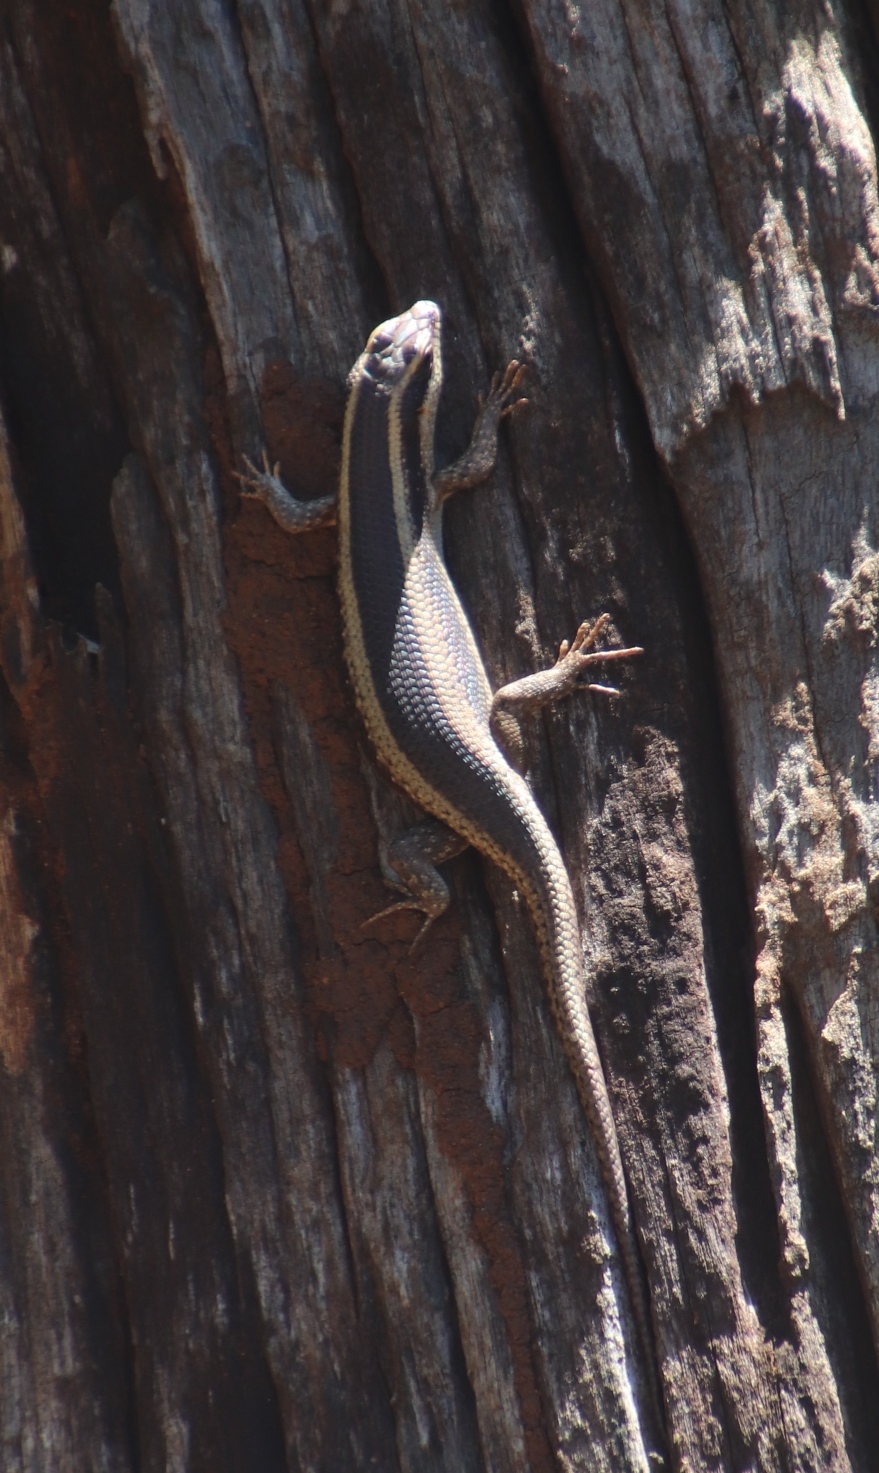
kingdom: Animalia
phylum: Chordata
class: Squamata
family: Scincidae
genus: Trachylepis
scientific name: Trachylepis striata
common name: African striped mabuya
